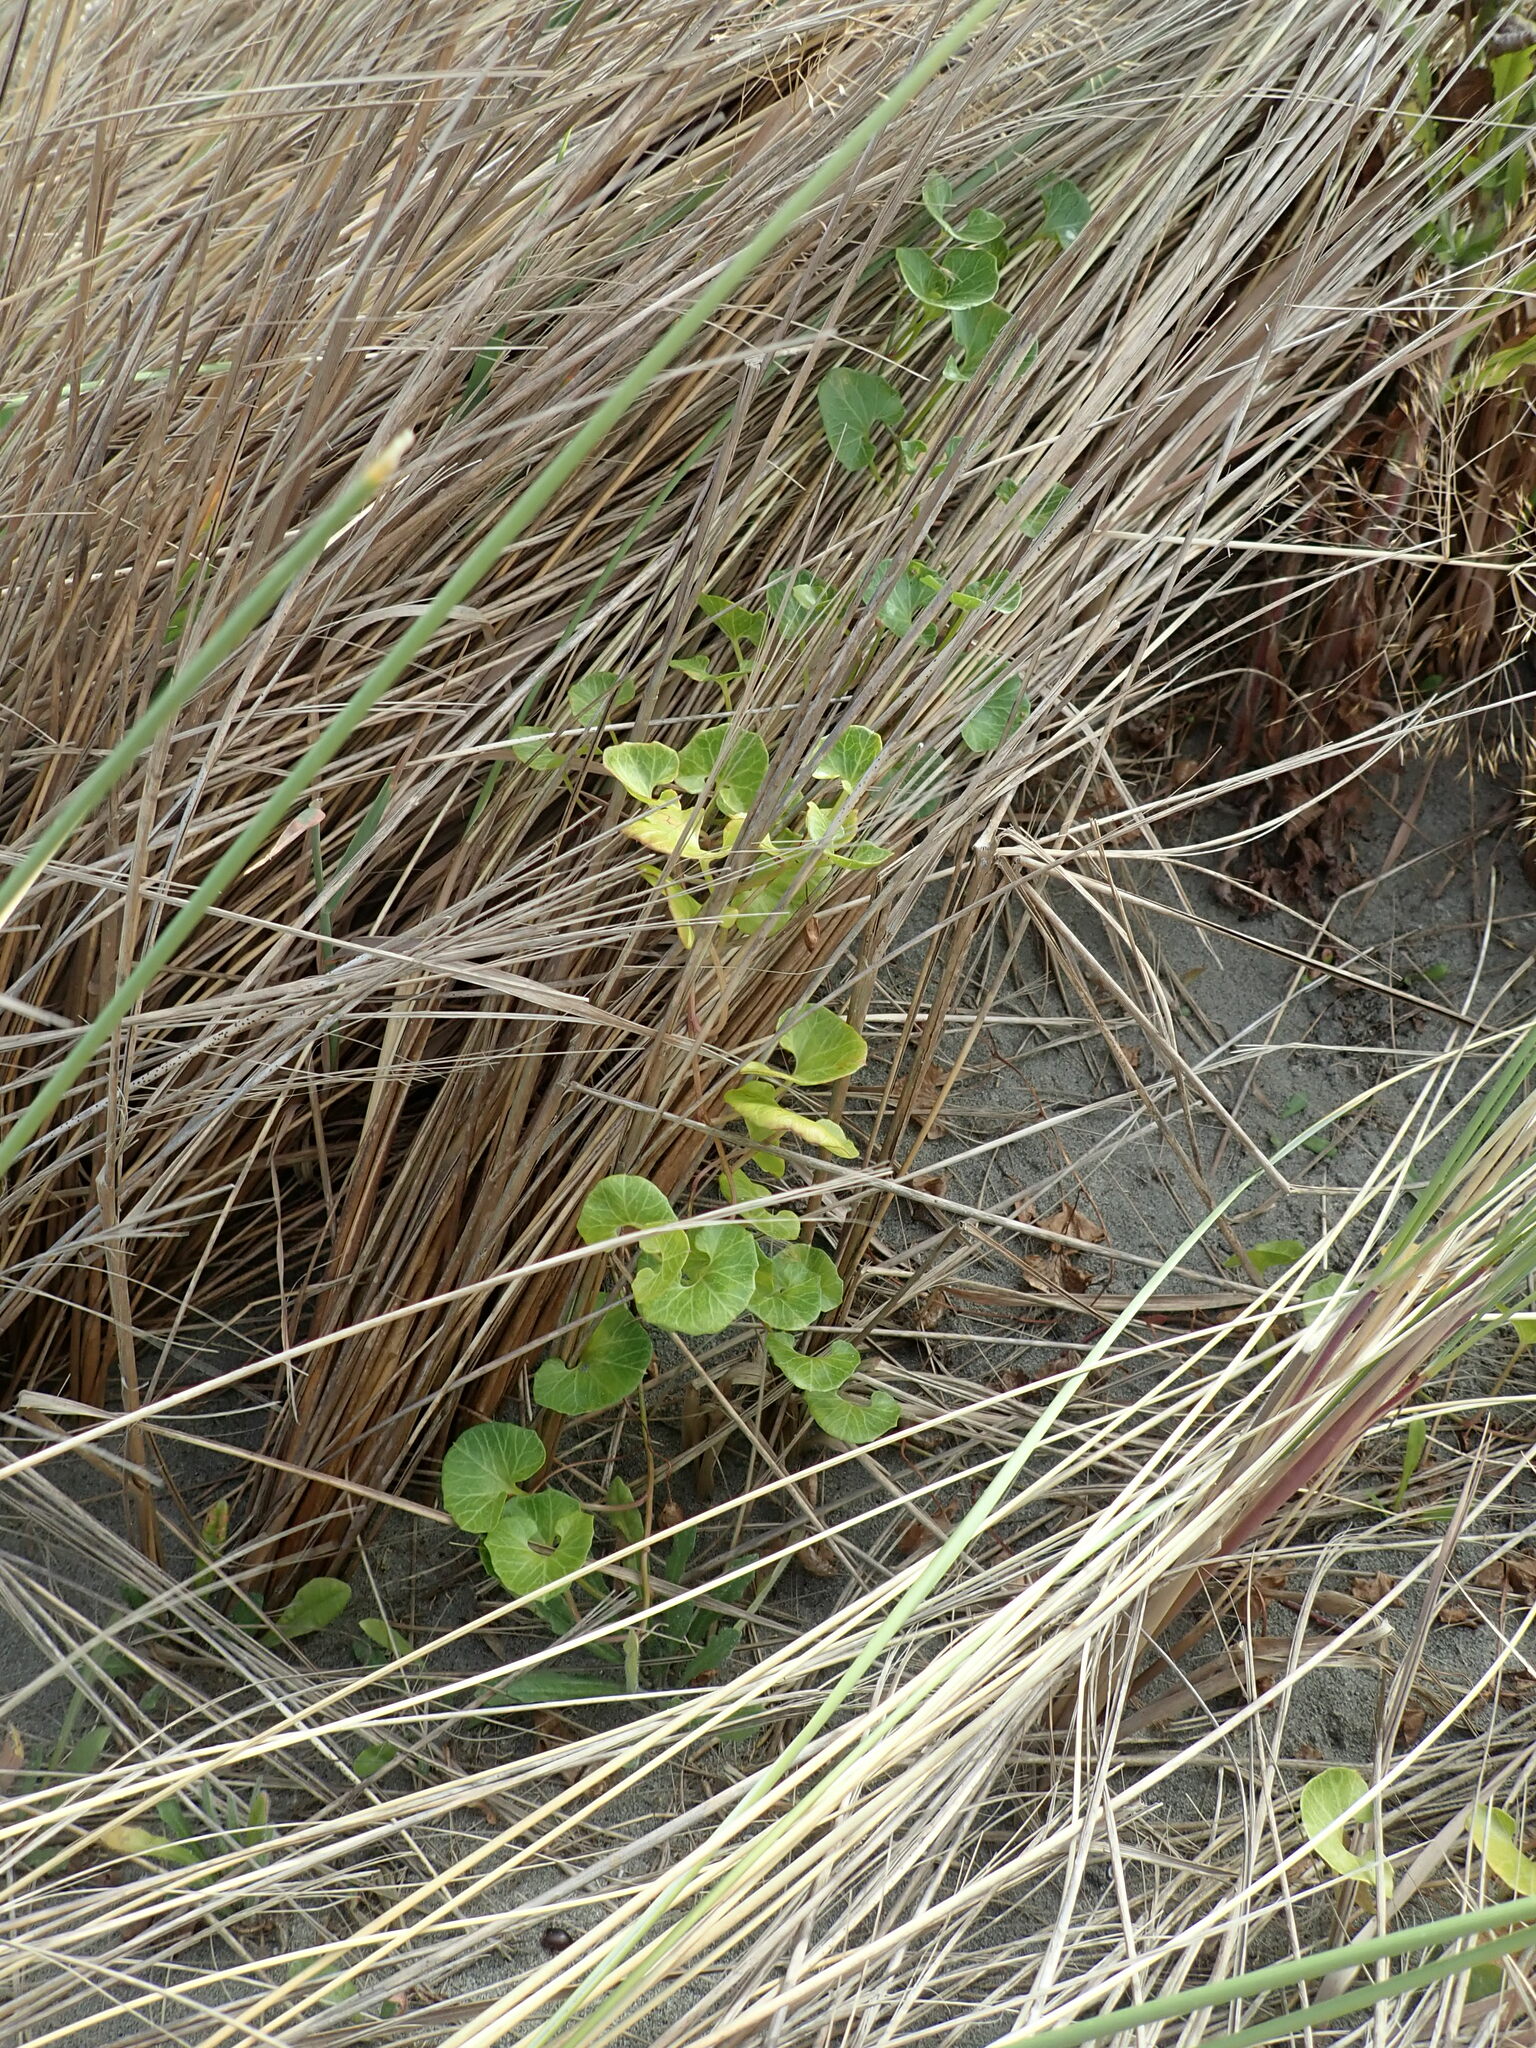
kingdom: Plantae
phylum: Tracheophyta
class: Magnoliopsida
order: Solanales
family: Convolvulaceae
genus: Calystegia
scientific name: Calystegia soldanella
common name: Sea bindweed
